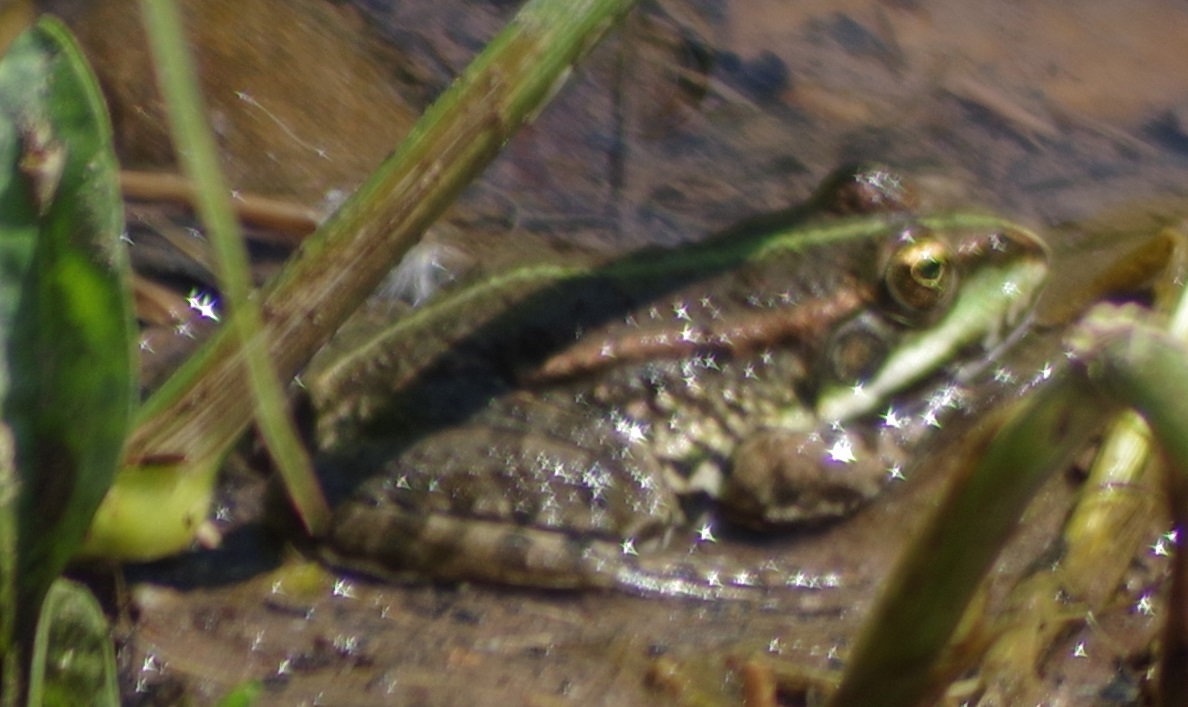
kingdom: Animalia
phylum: Chordata
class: Amphibia
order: Anura
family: Ranidae
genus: Pelophylax
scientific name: Pelophylax
